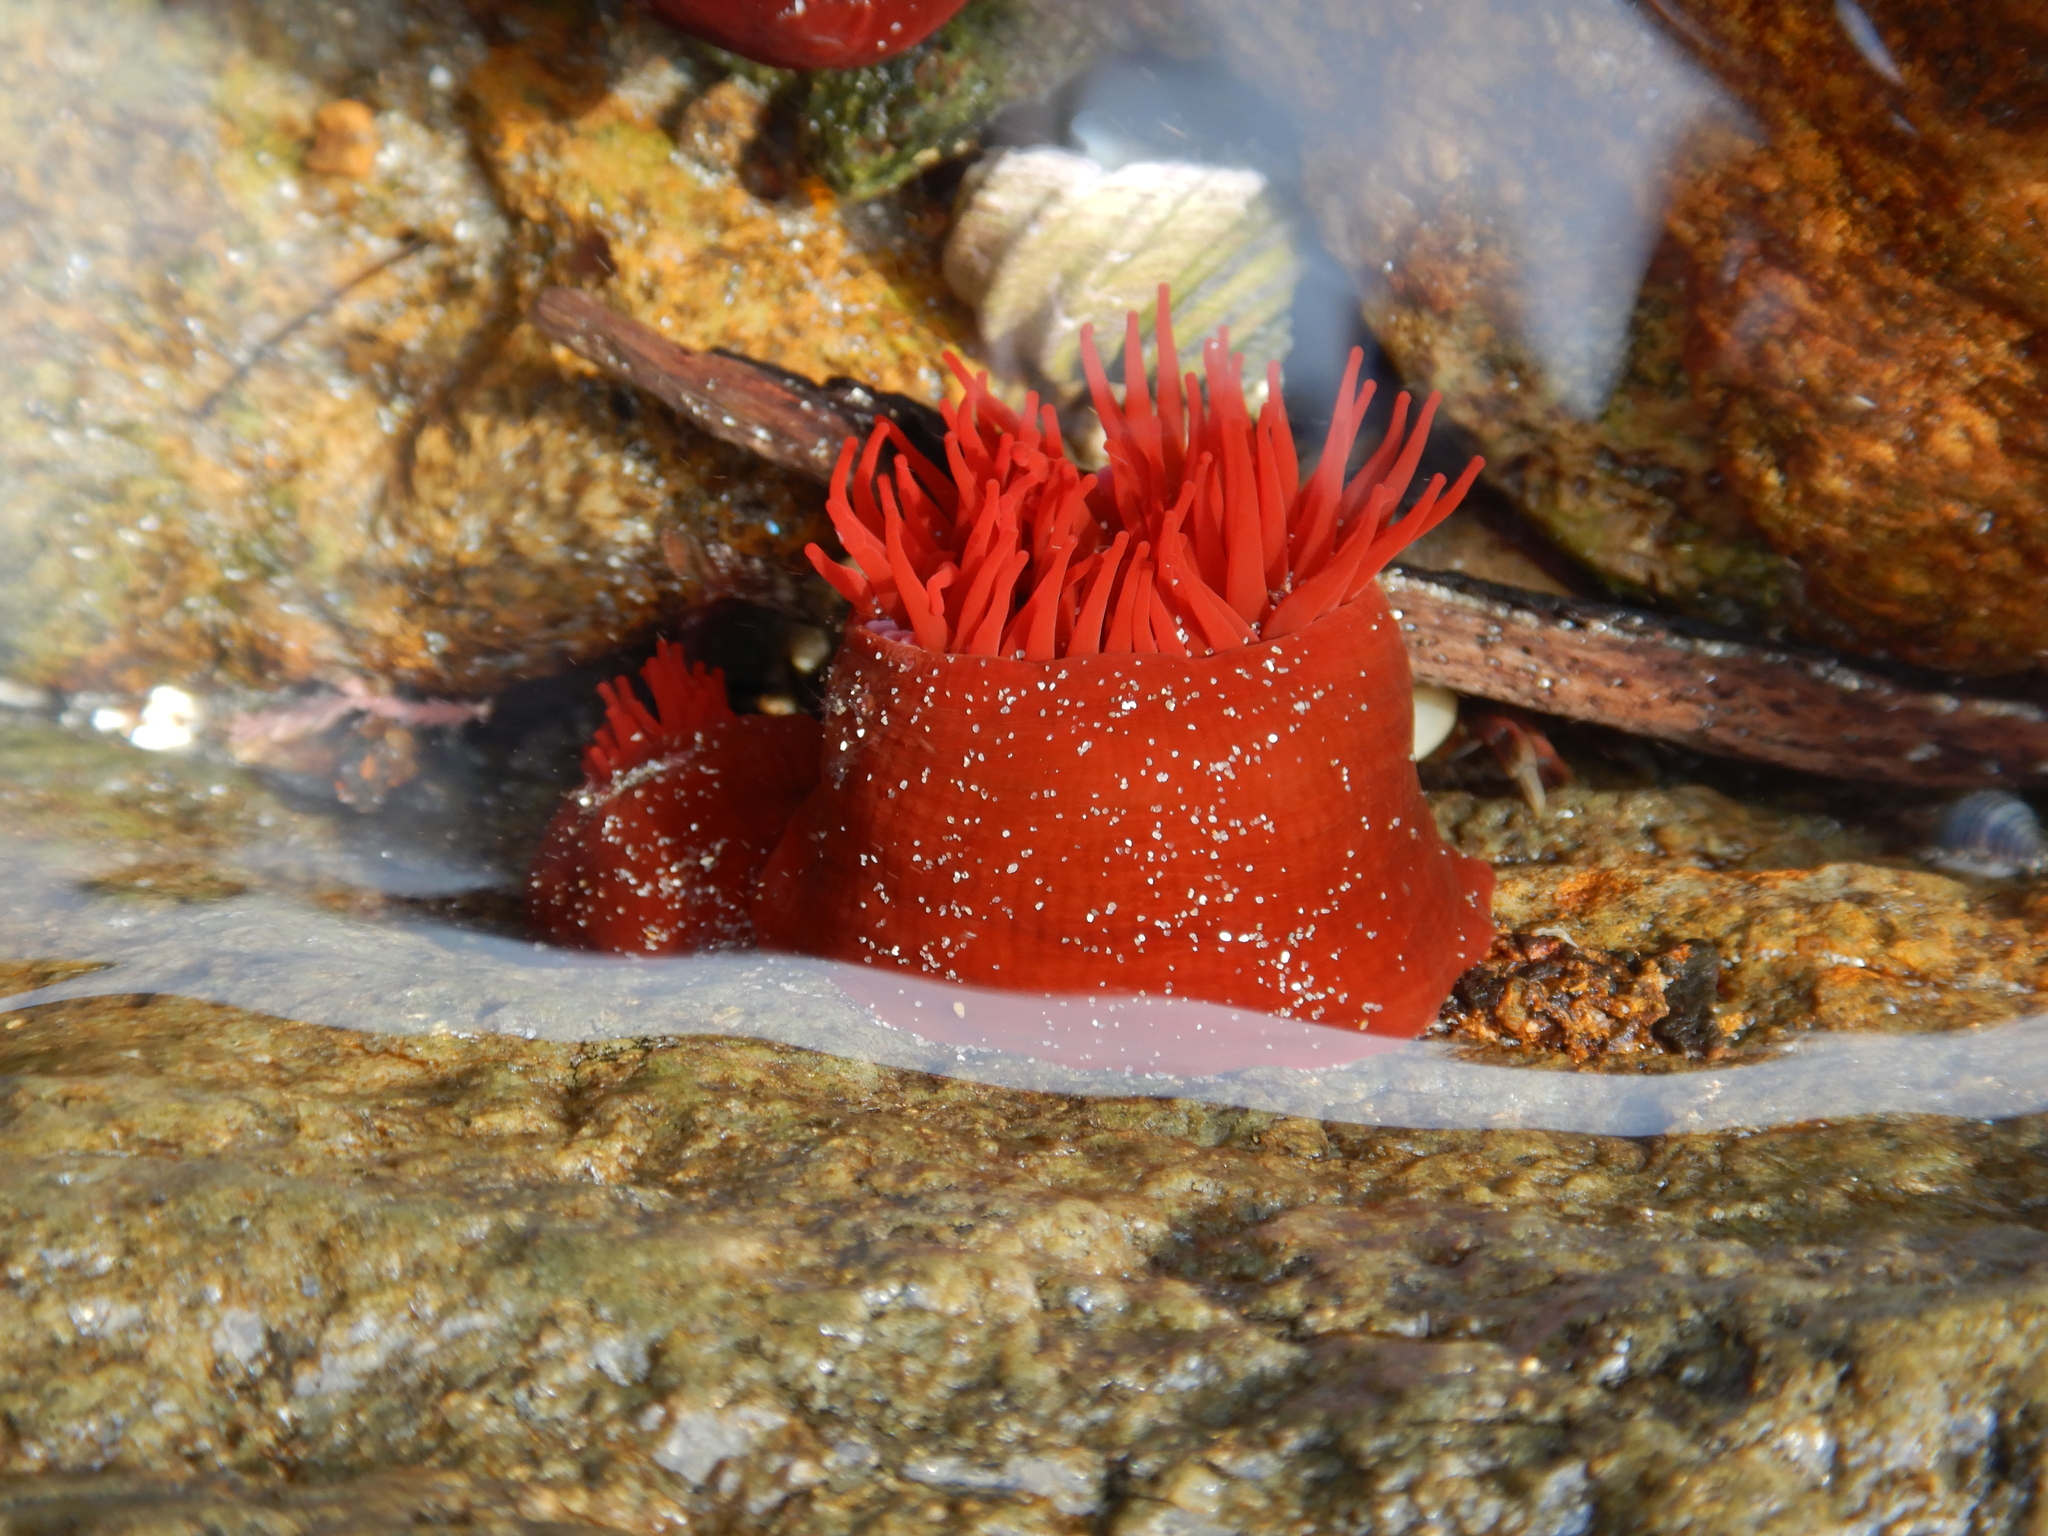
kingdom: Animalia
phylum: Cnidaria
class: Anthozoa
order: Actiniaria
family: Actiniidae
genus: Actinia
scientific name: Actinia tenebrosa
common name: Waratah anemone
